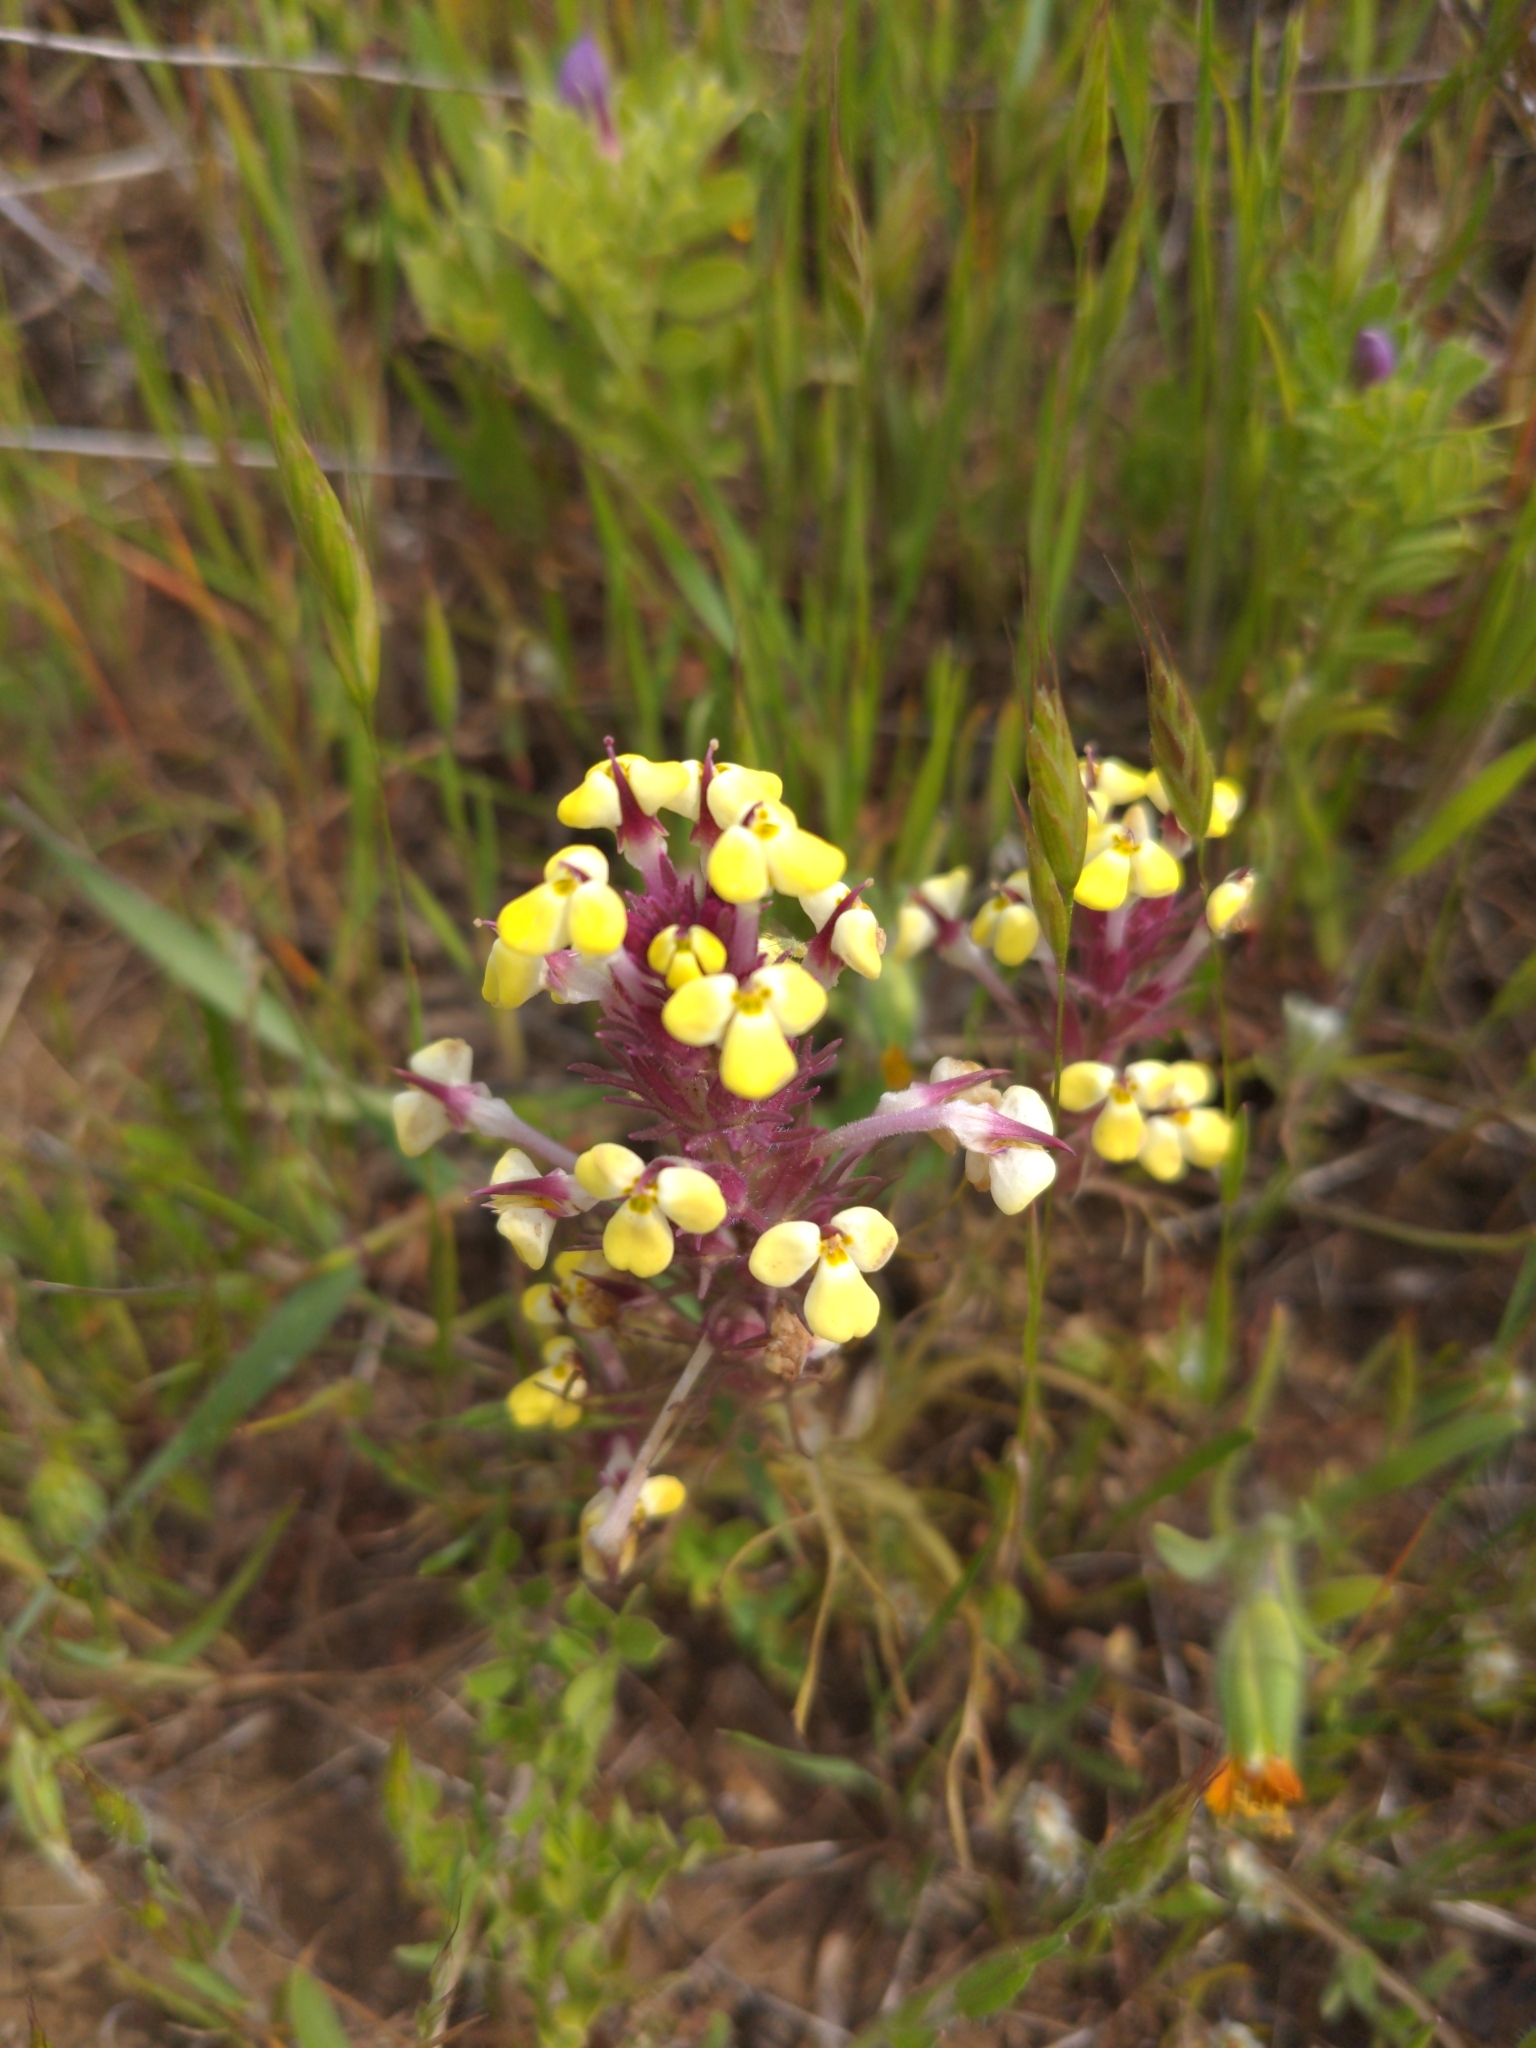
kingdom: Plantae
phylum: Tracheophyta
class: Magnoliopsida
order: Lamiales
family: Orobanchaceae
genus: Triphysaria
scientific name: Triphysaria eriantha
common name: Johnny-tuck
